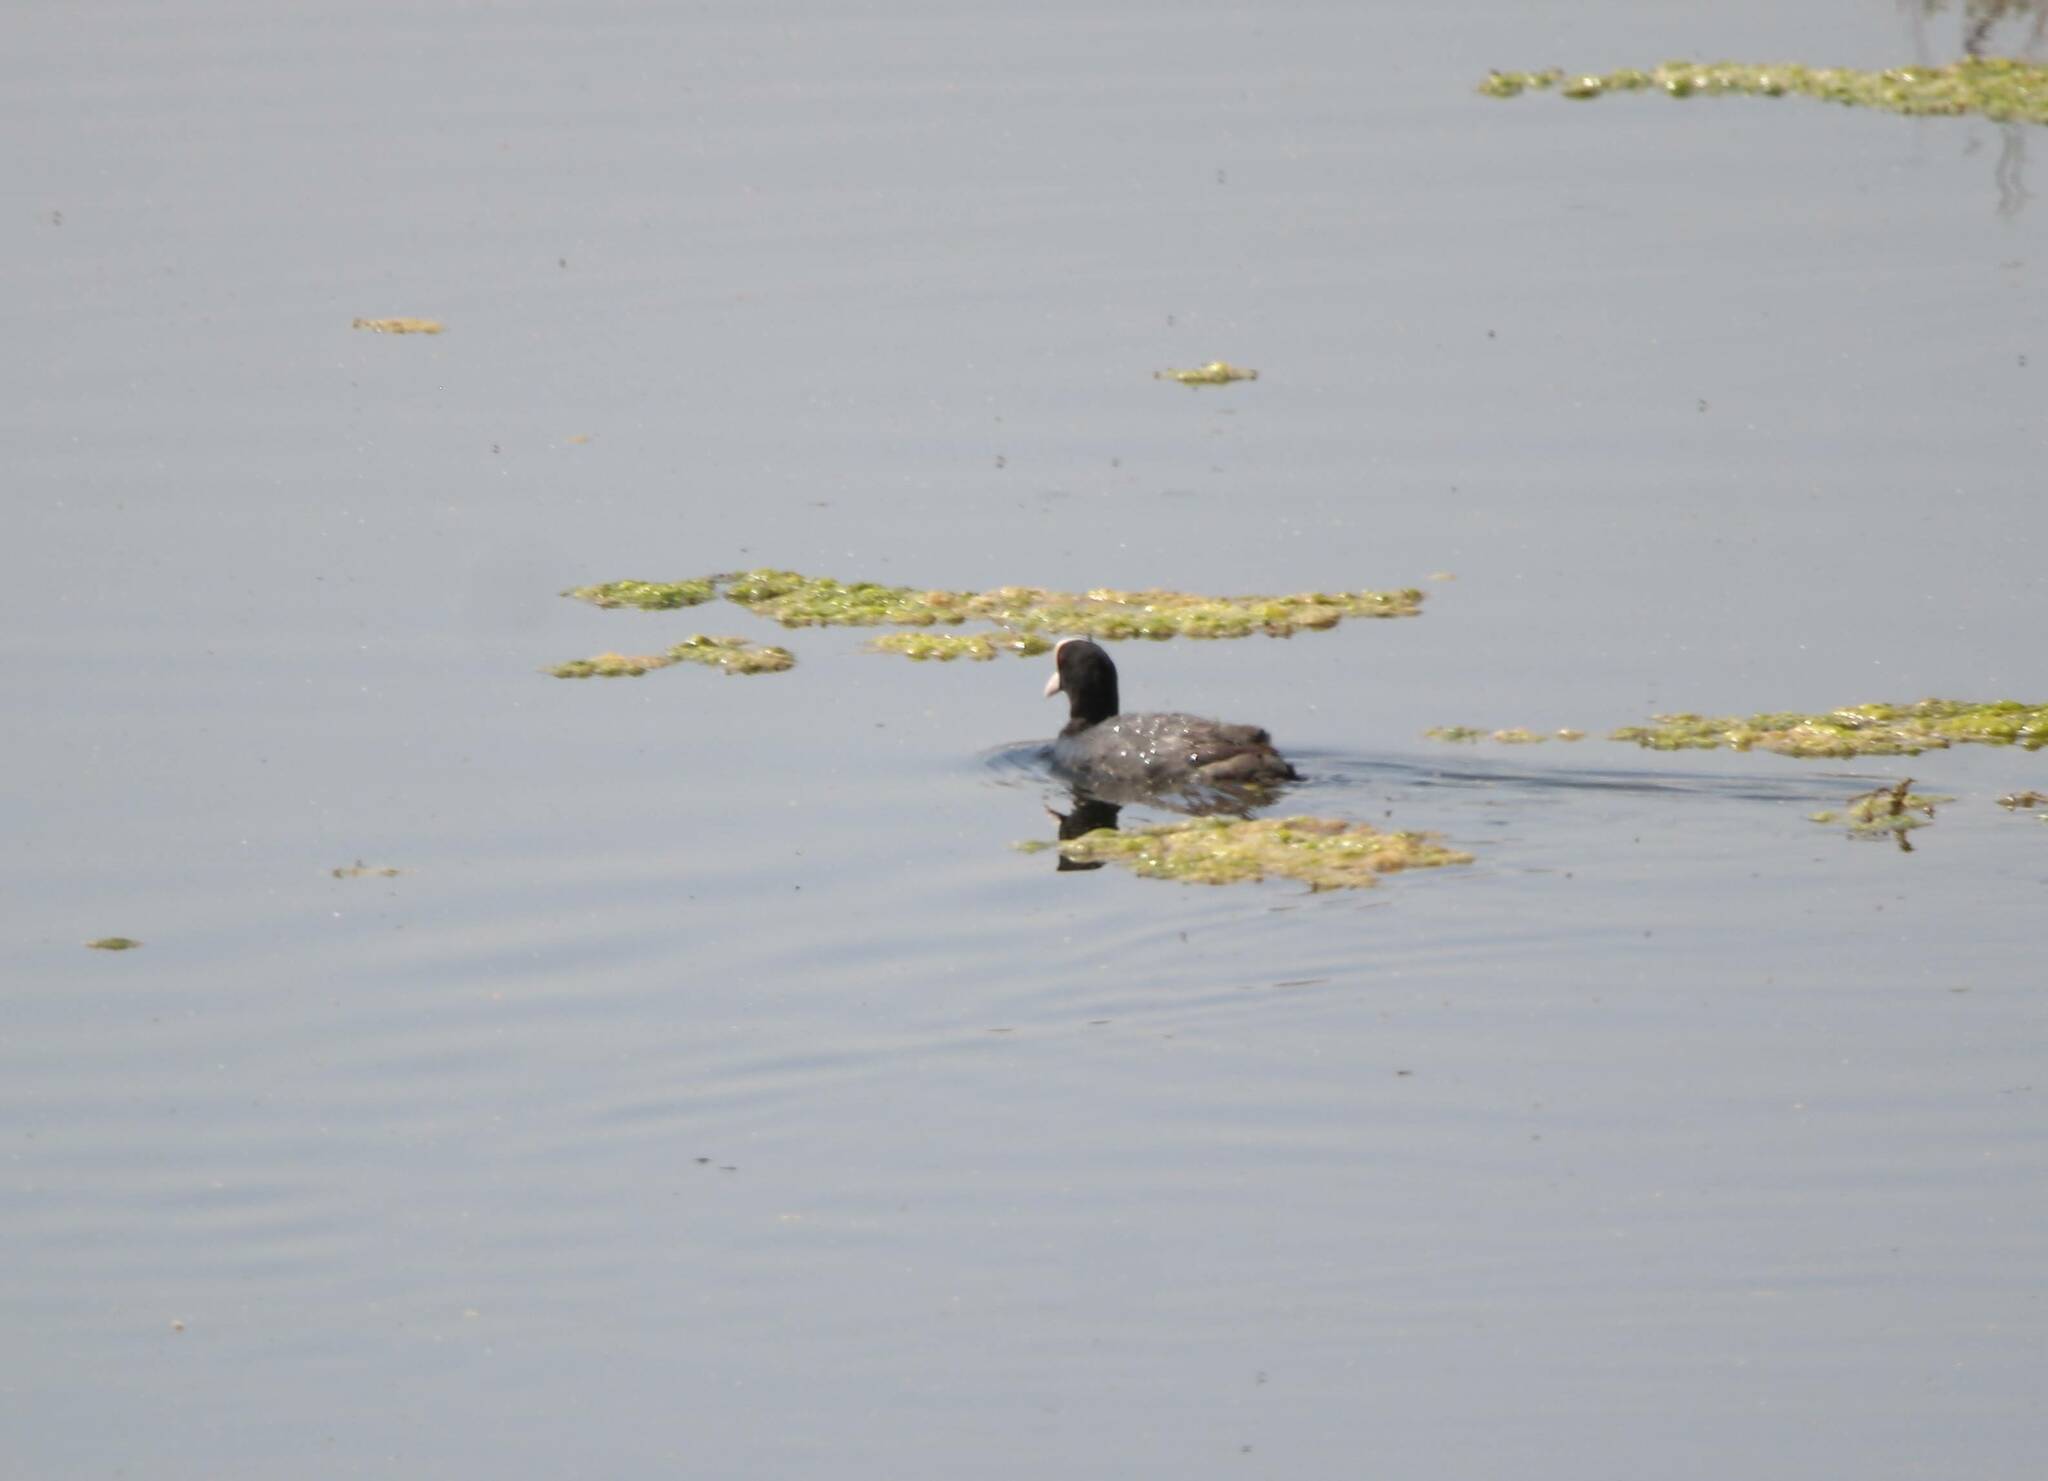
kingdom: Animalia
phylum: Chordata
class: Aves
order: Gruiformes
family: Rallidae
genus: Fulica
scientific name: Fulica atra
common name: Eurasian coot
